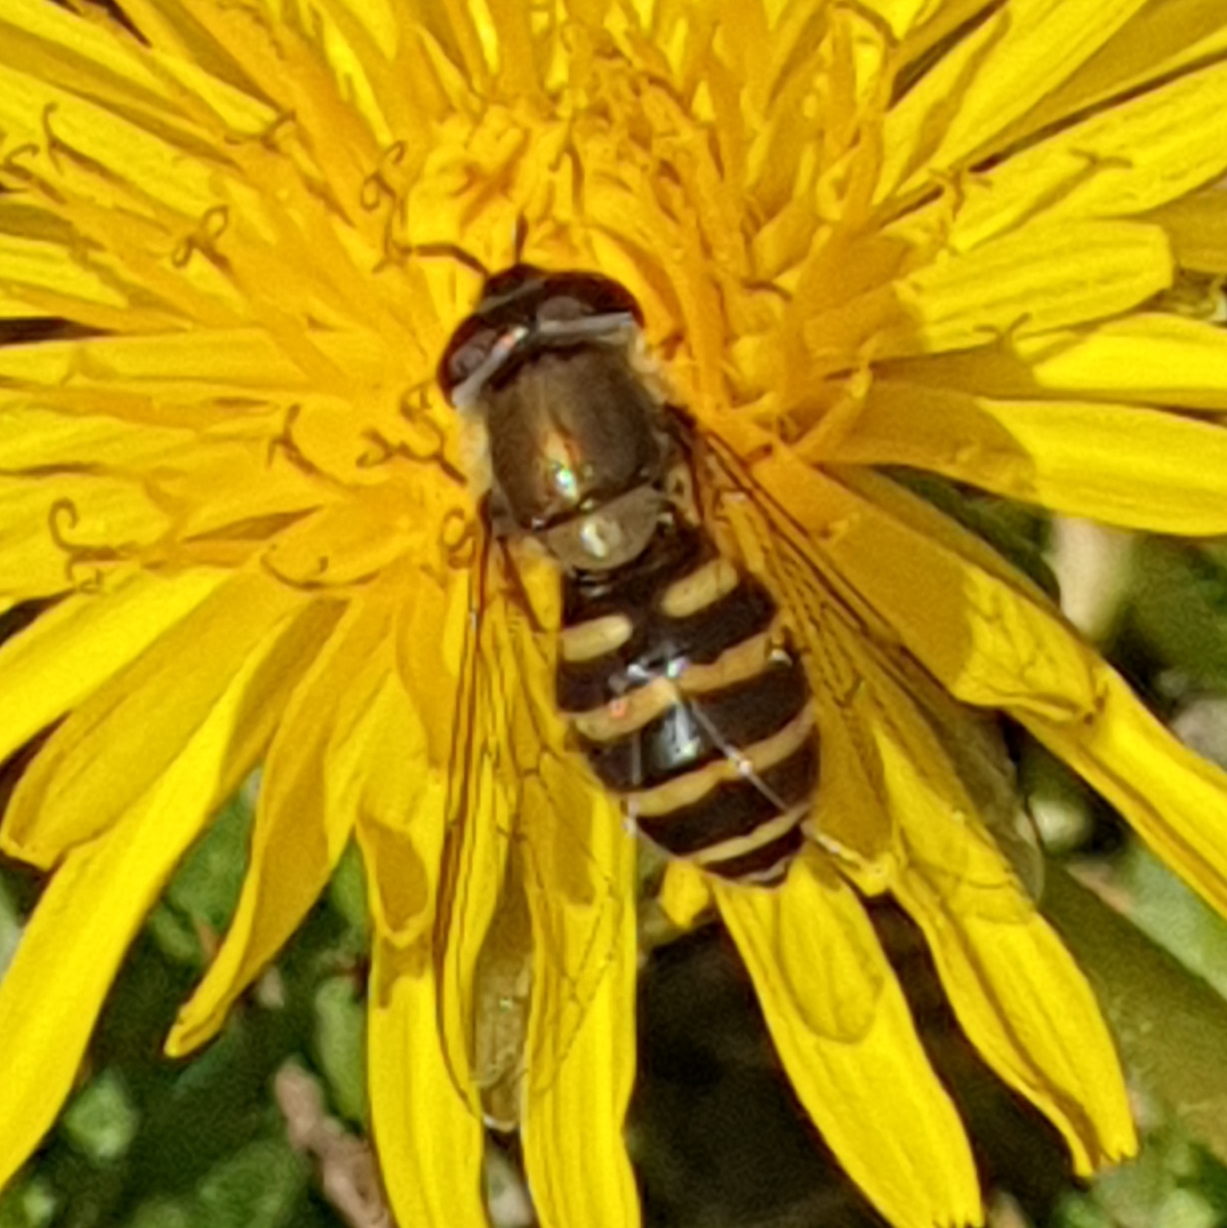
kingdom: Animalia
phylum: Arthropoda
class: Insecta
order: Diptera
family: Syrphidae
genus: Syrphus
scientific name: Syrphus
